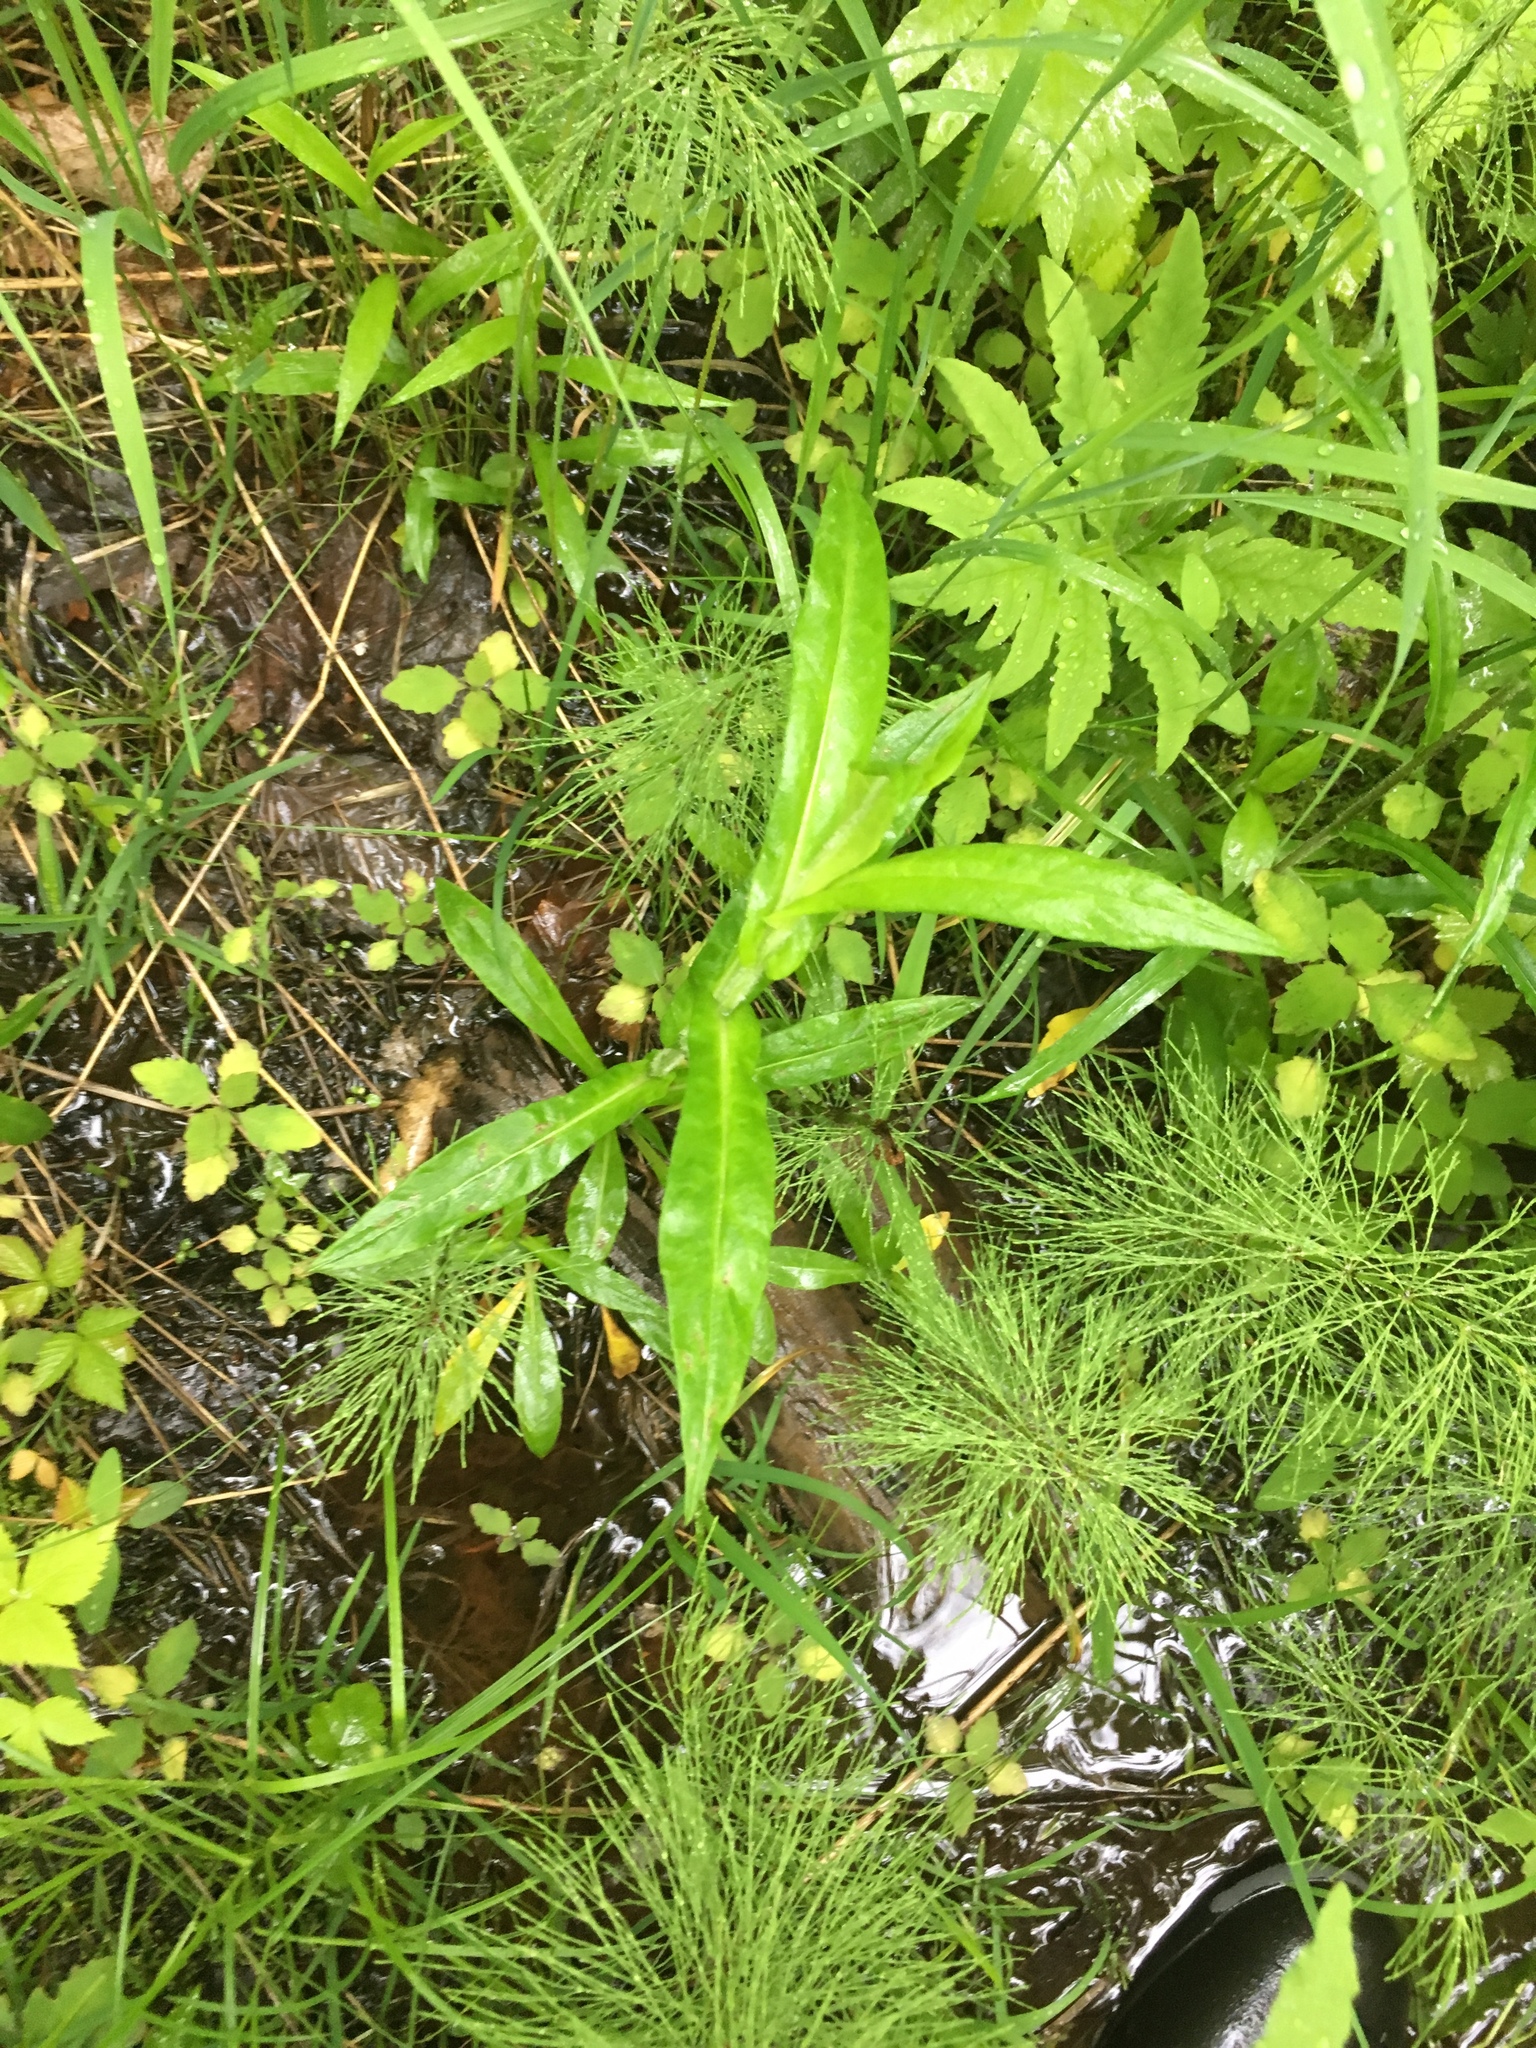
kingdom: Plantae
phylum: Tracheophyta
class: Magnoliopsida
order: Asterales
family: Asteraceae
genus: Symphyotrichum
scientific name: Symphyotrichum puniceum
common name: Bog aster
